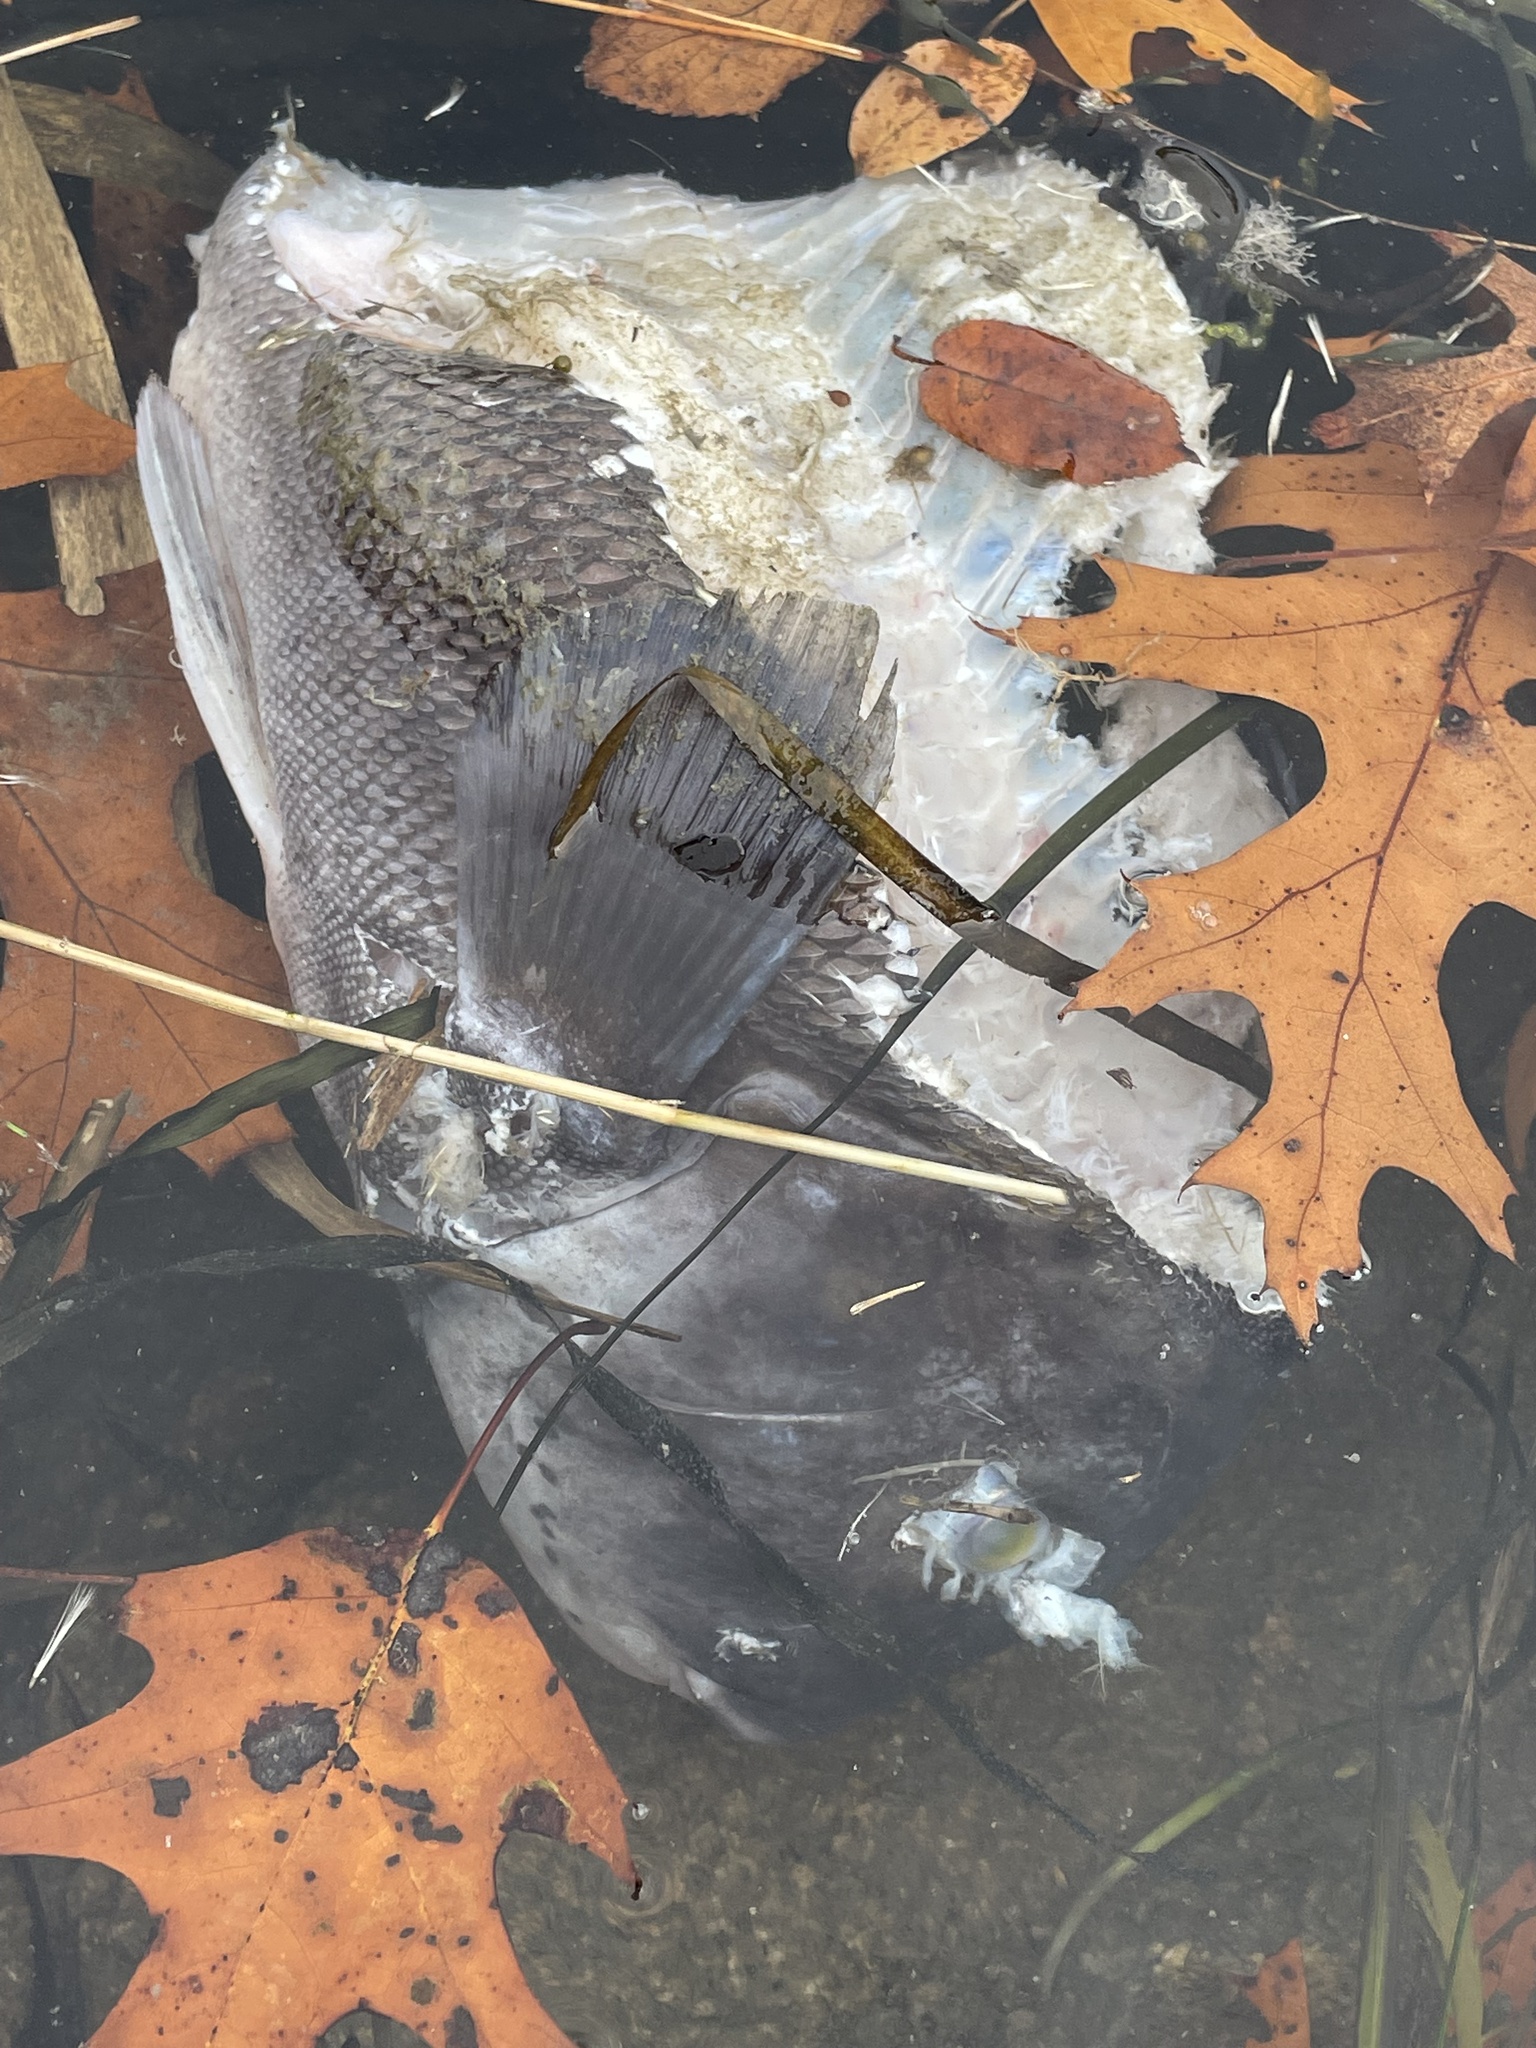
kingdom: Animalia
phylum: Chordata
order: Perciformes
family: Labridae
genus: Tautoga
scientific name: Tautoga onitis
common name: Tautog
